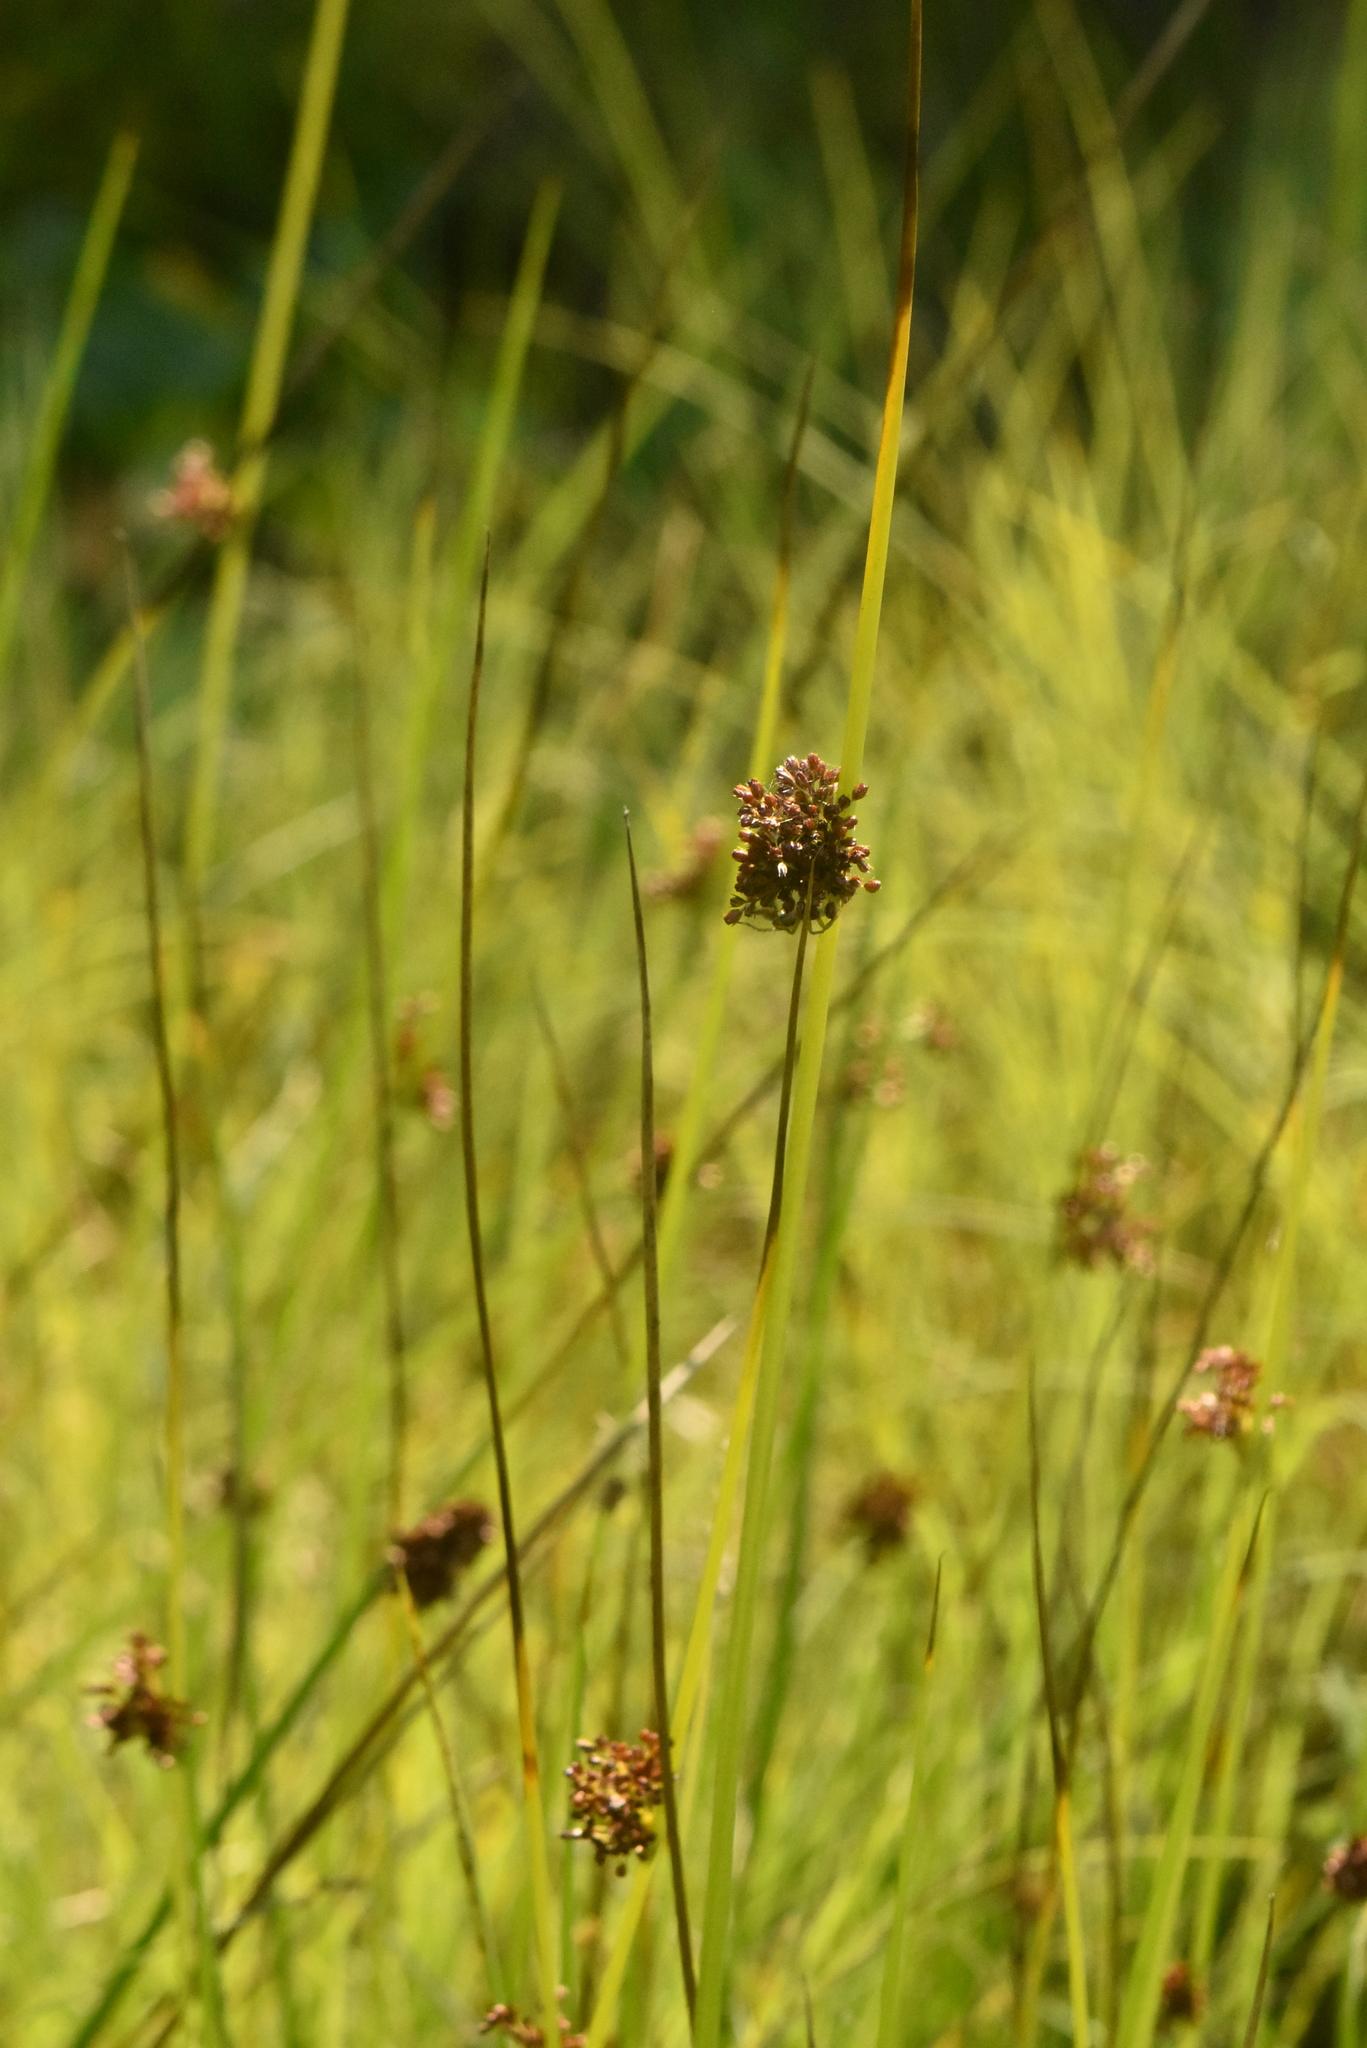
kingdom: Plantae
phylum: Tracheophyta
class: Liliopsida
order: Poales
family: Juncaceae
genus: Juncus
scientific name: Juncus effusus
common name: Soft rush
